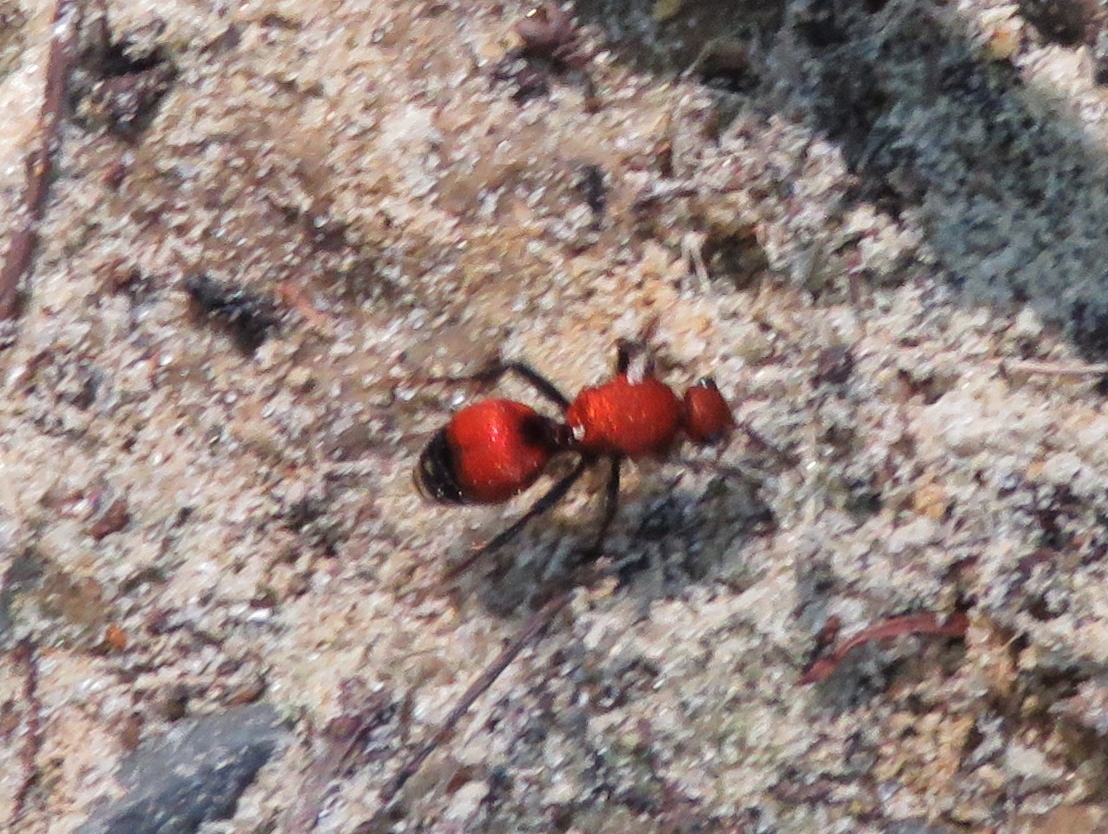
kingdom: Animalia
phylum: Arthropoda
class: Insecta
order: Hymenoptera
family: Mutillidae
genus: Dasymutilla
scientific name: Dasymutilla
